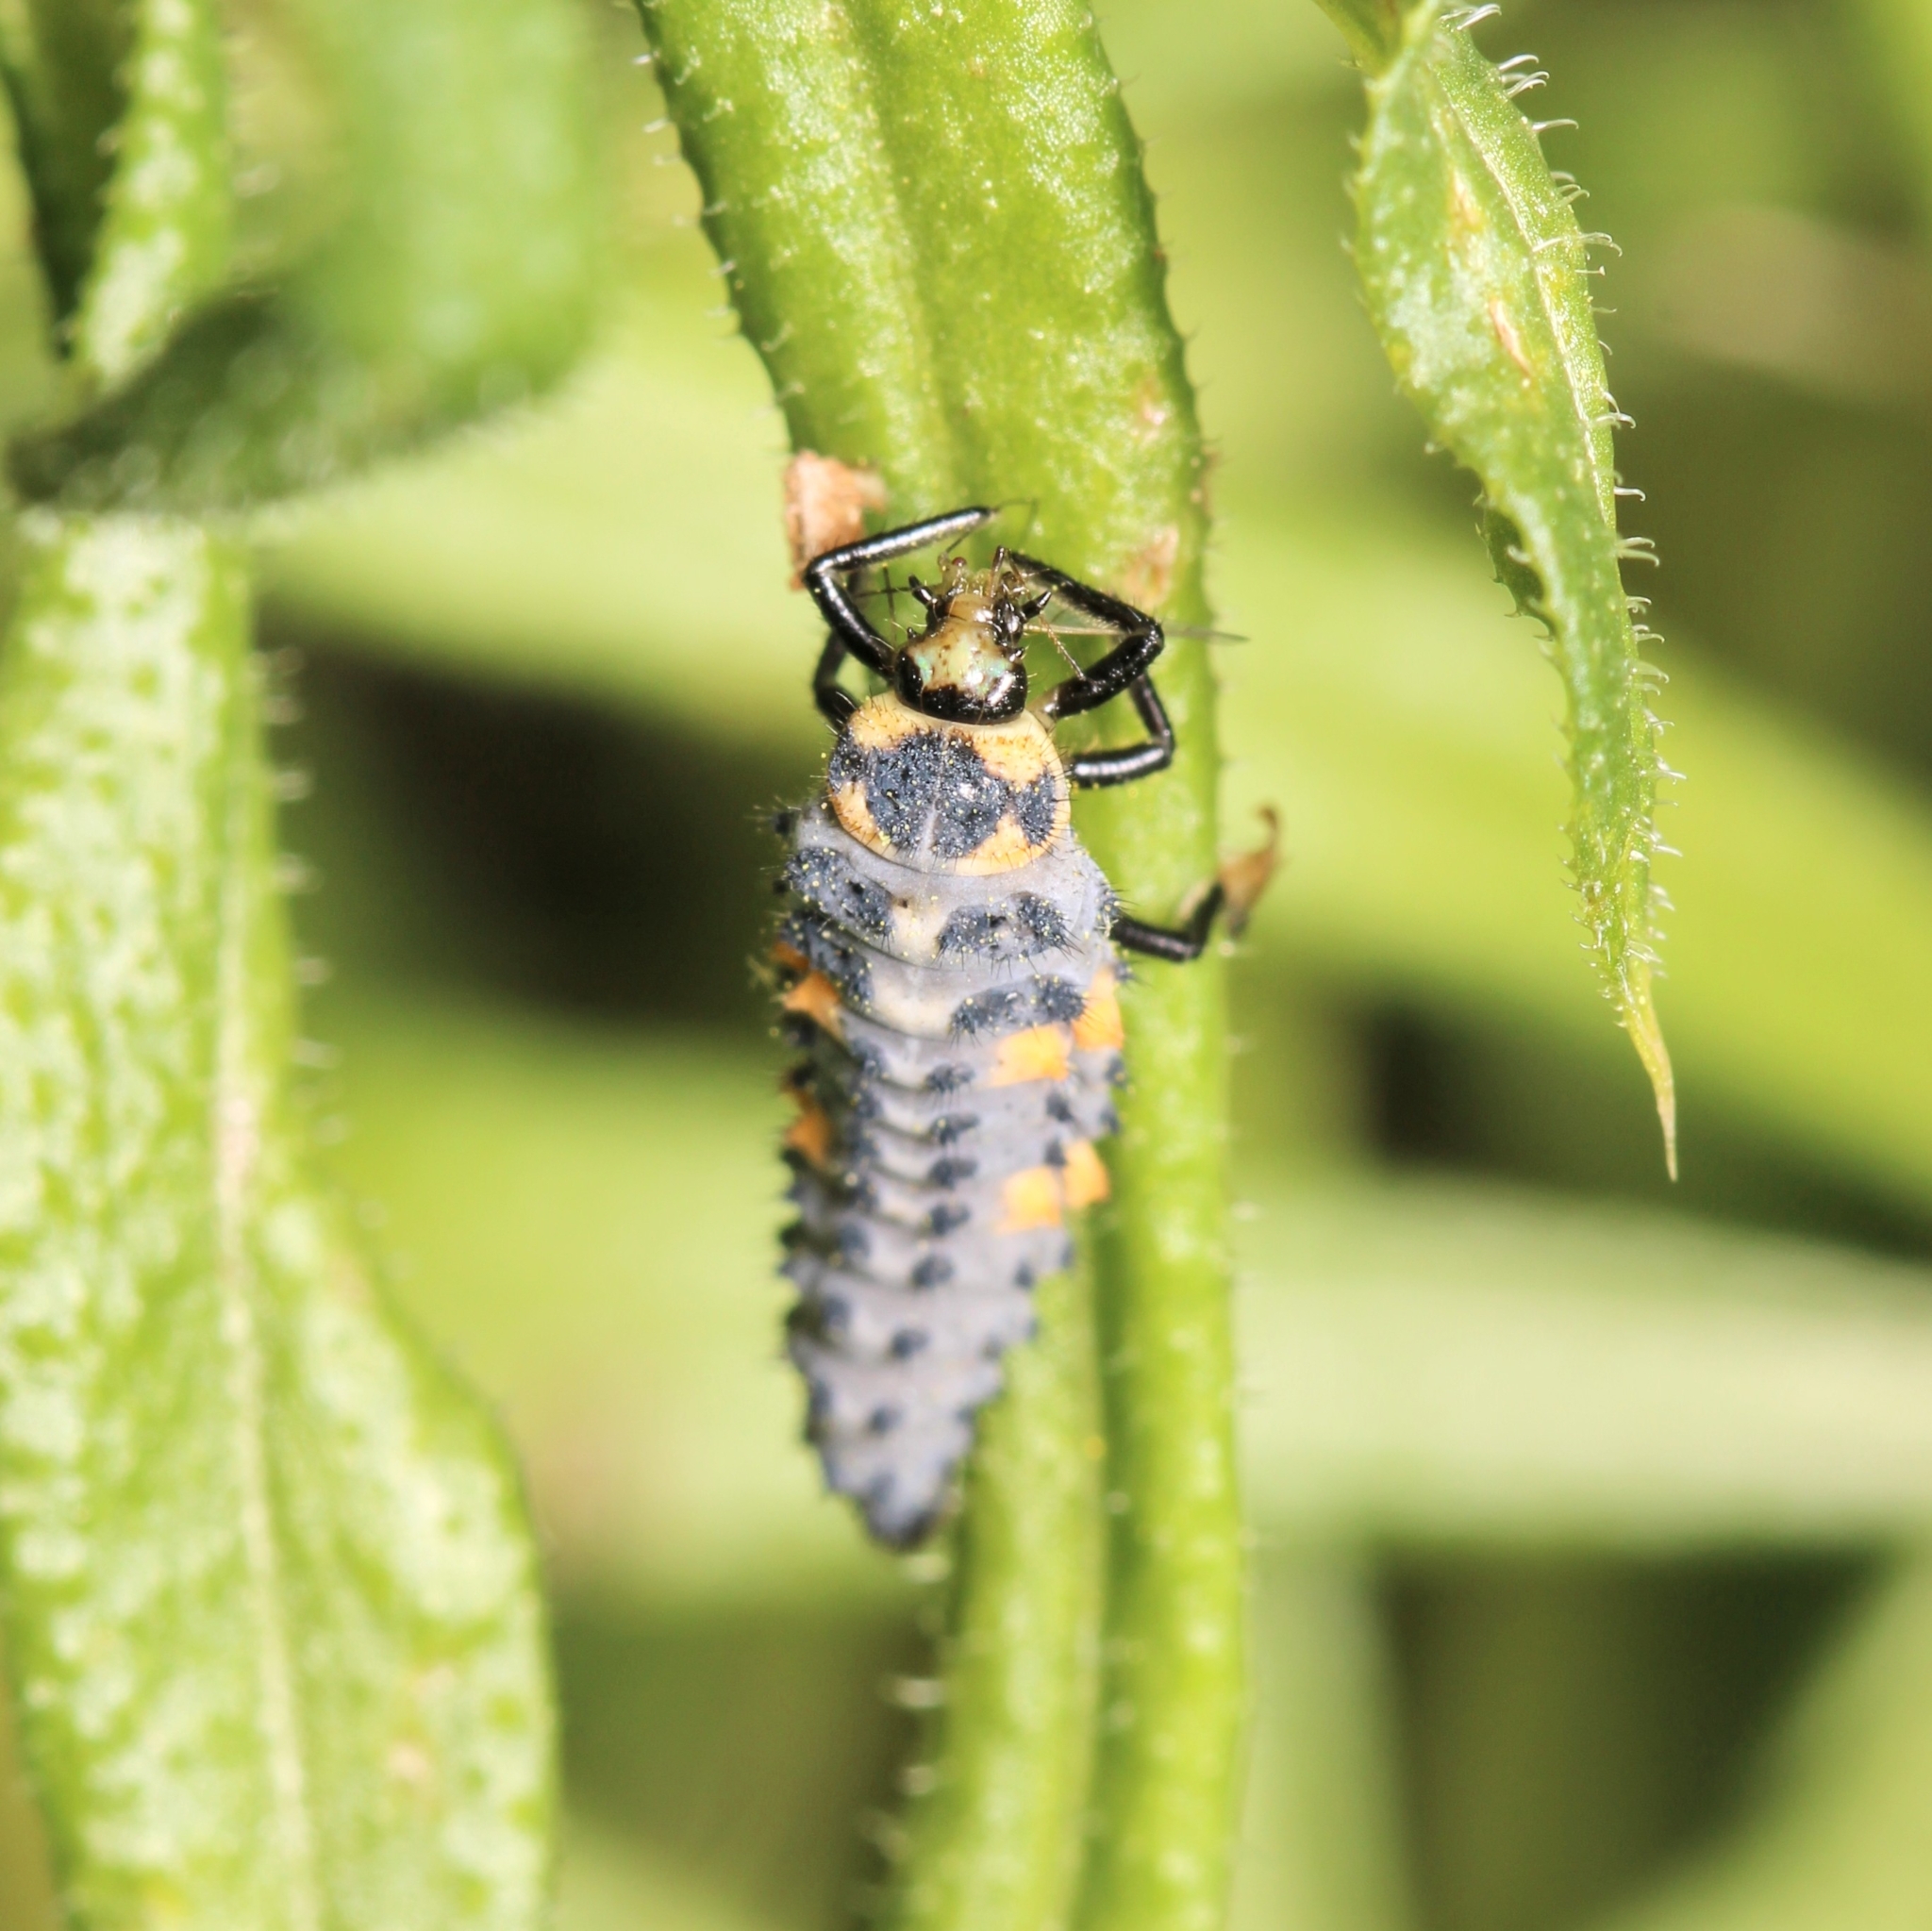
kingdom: Animalia
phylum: Arthropoda
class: Insecta
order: Coleoptera
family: Coccinellidae
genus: Coccinella
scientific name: Coccinella septempunctata
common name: Sevenspotted lady beetle
